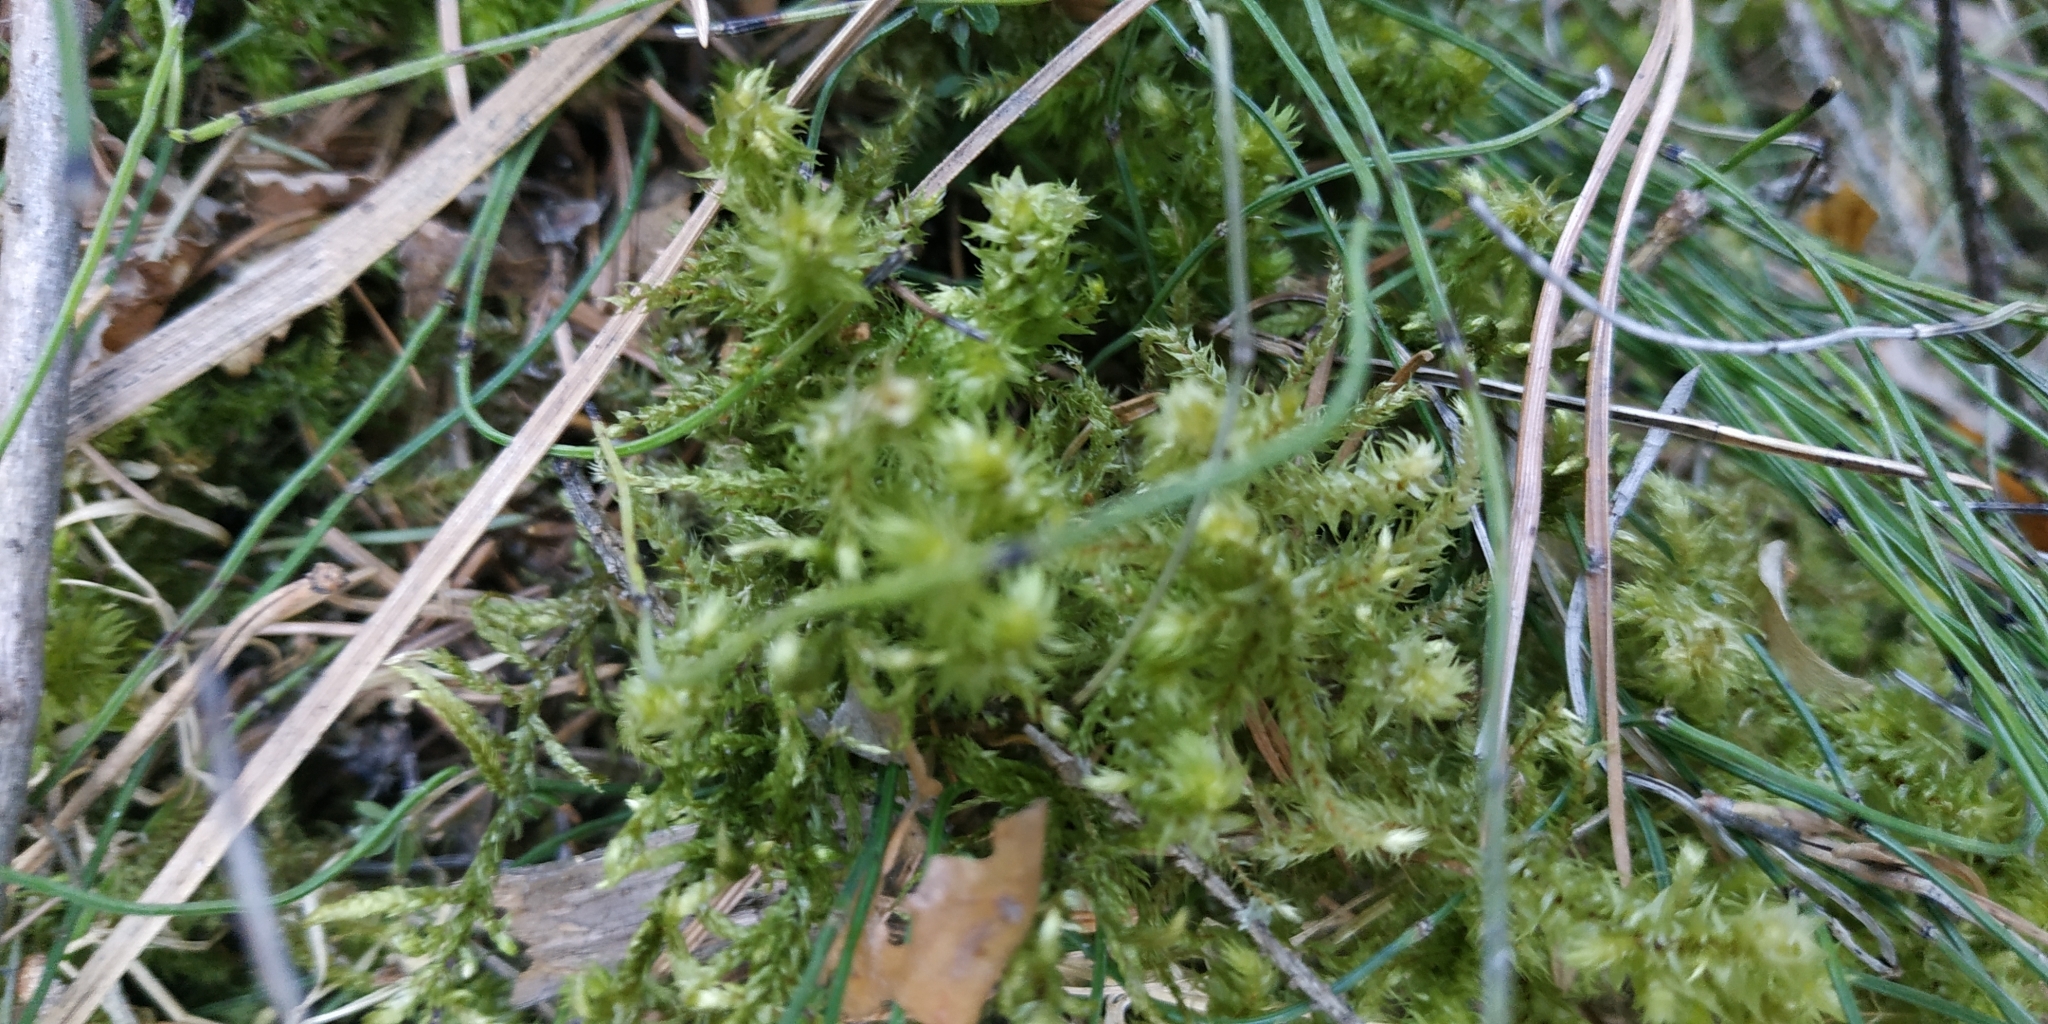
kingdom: Plantae
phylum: Bryophyta
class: Bryopsida
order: Hypnales
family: Hylocomiaceae
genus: Hylocomiadelphus
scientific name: Hylocomiadelphus triquetrus
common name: Rough goose neck moss
